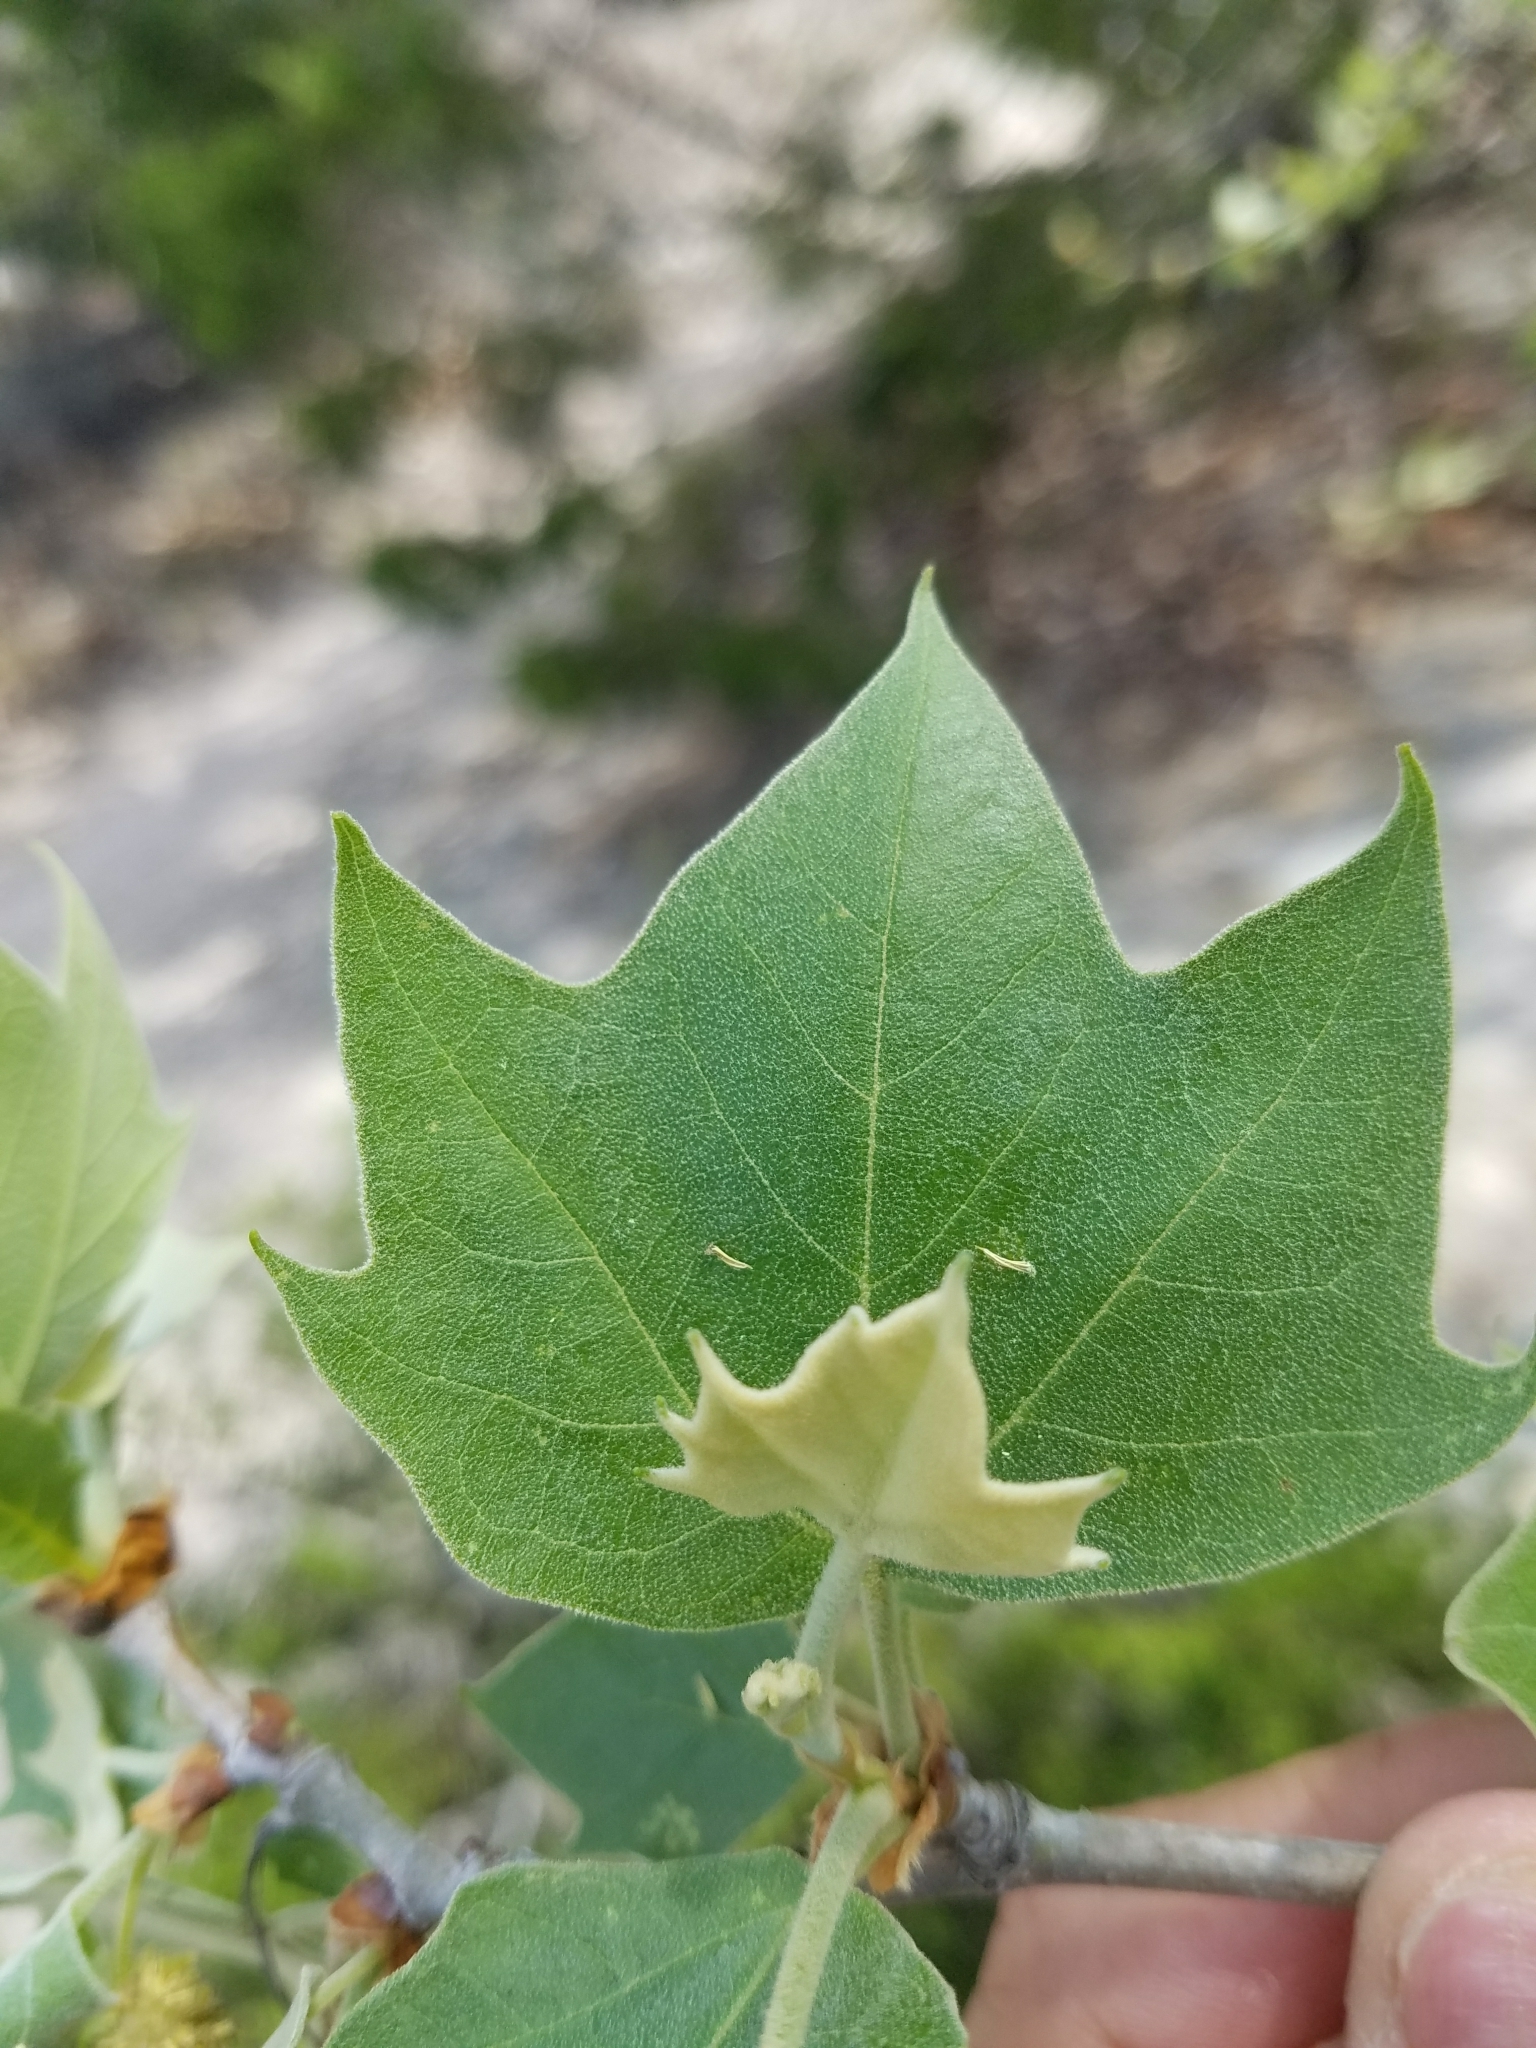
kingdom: Plantae
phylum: Tracheophyta
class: Magnoliopsida
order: Proteales
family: Platanaceae
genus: Platanus
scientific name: Platanus occidentalis
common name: American sycamore
